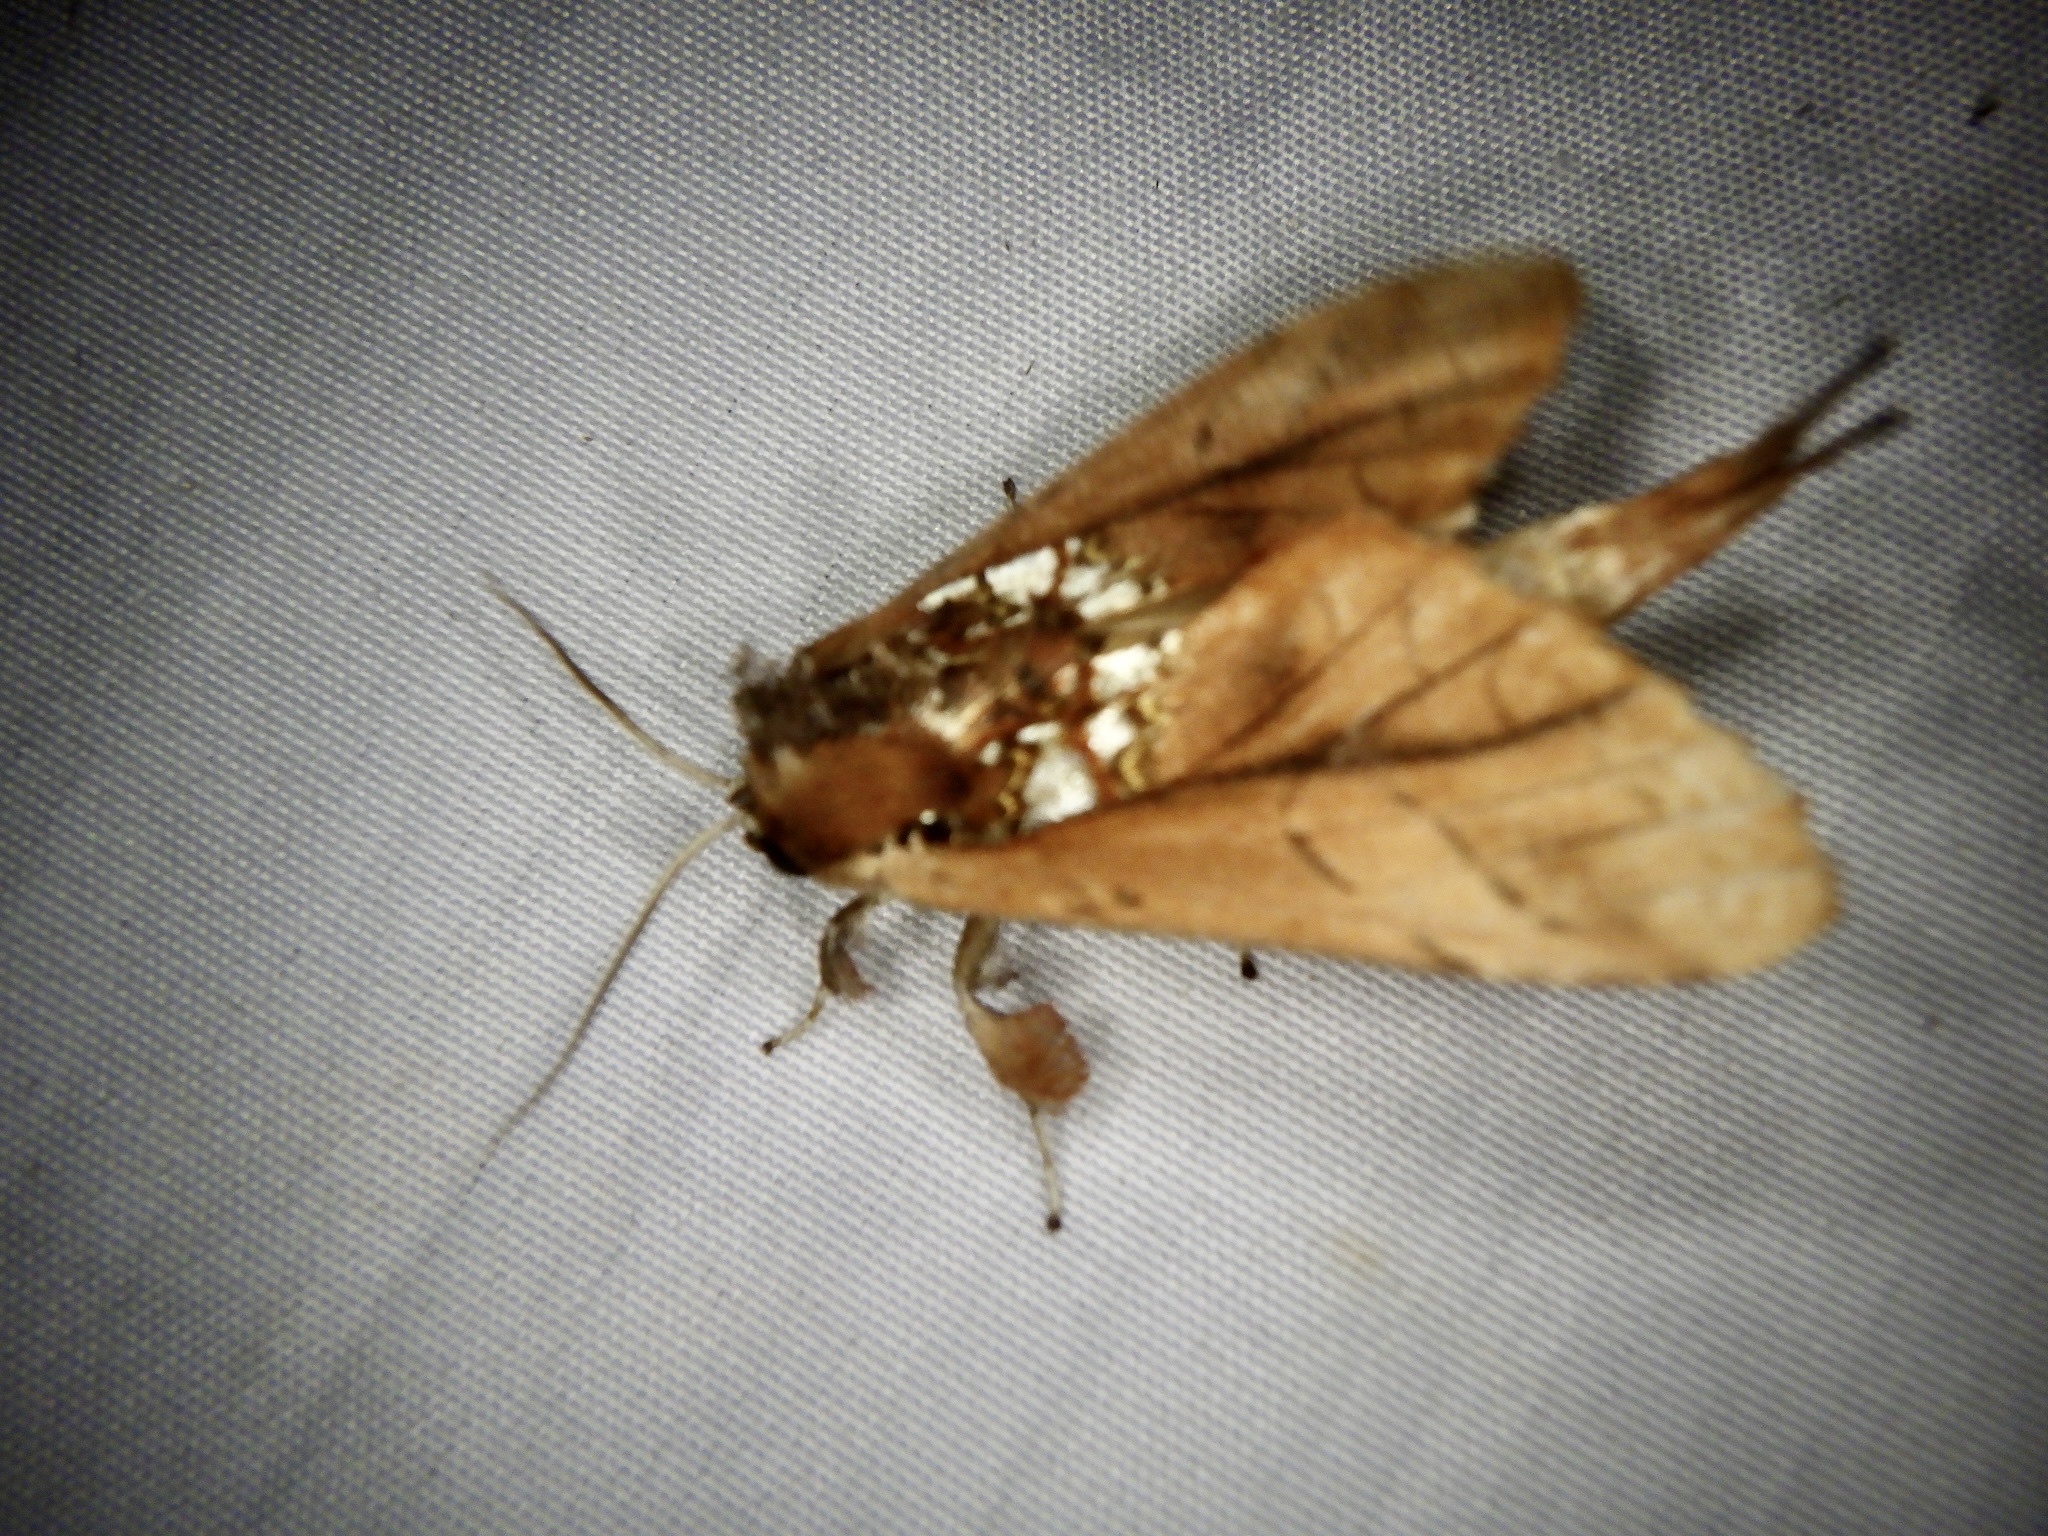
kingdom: Animalia
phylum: Arthropoda
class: Insecta
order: Lepidoptera
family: Notodontidae
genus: Spatalia
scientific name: Spatalia dives
